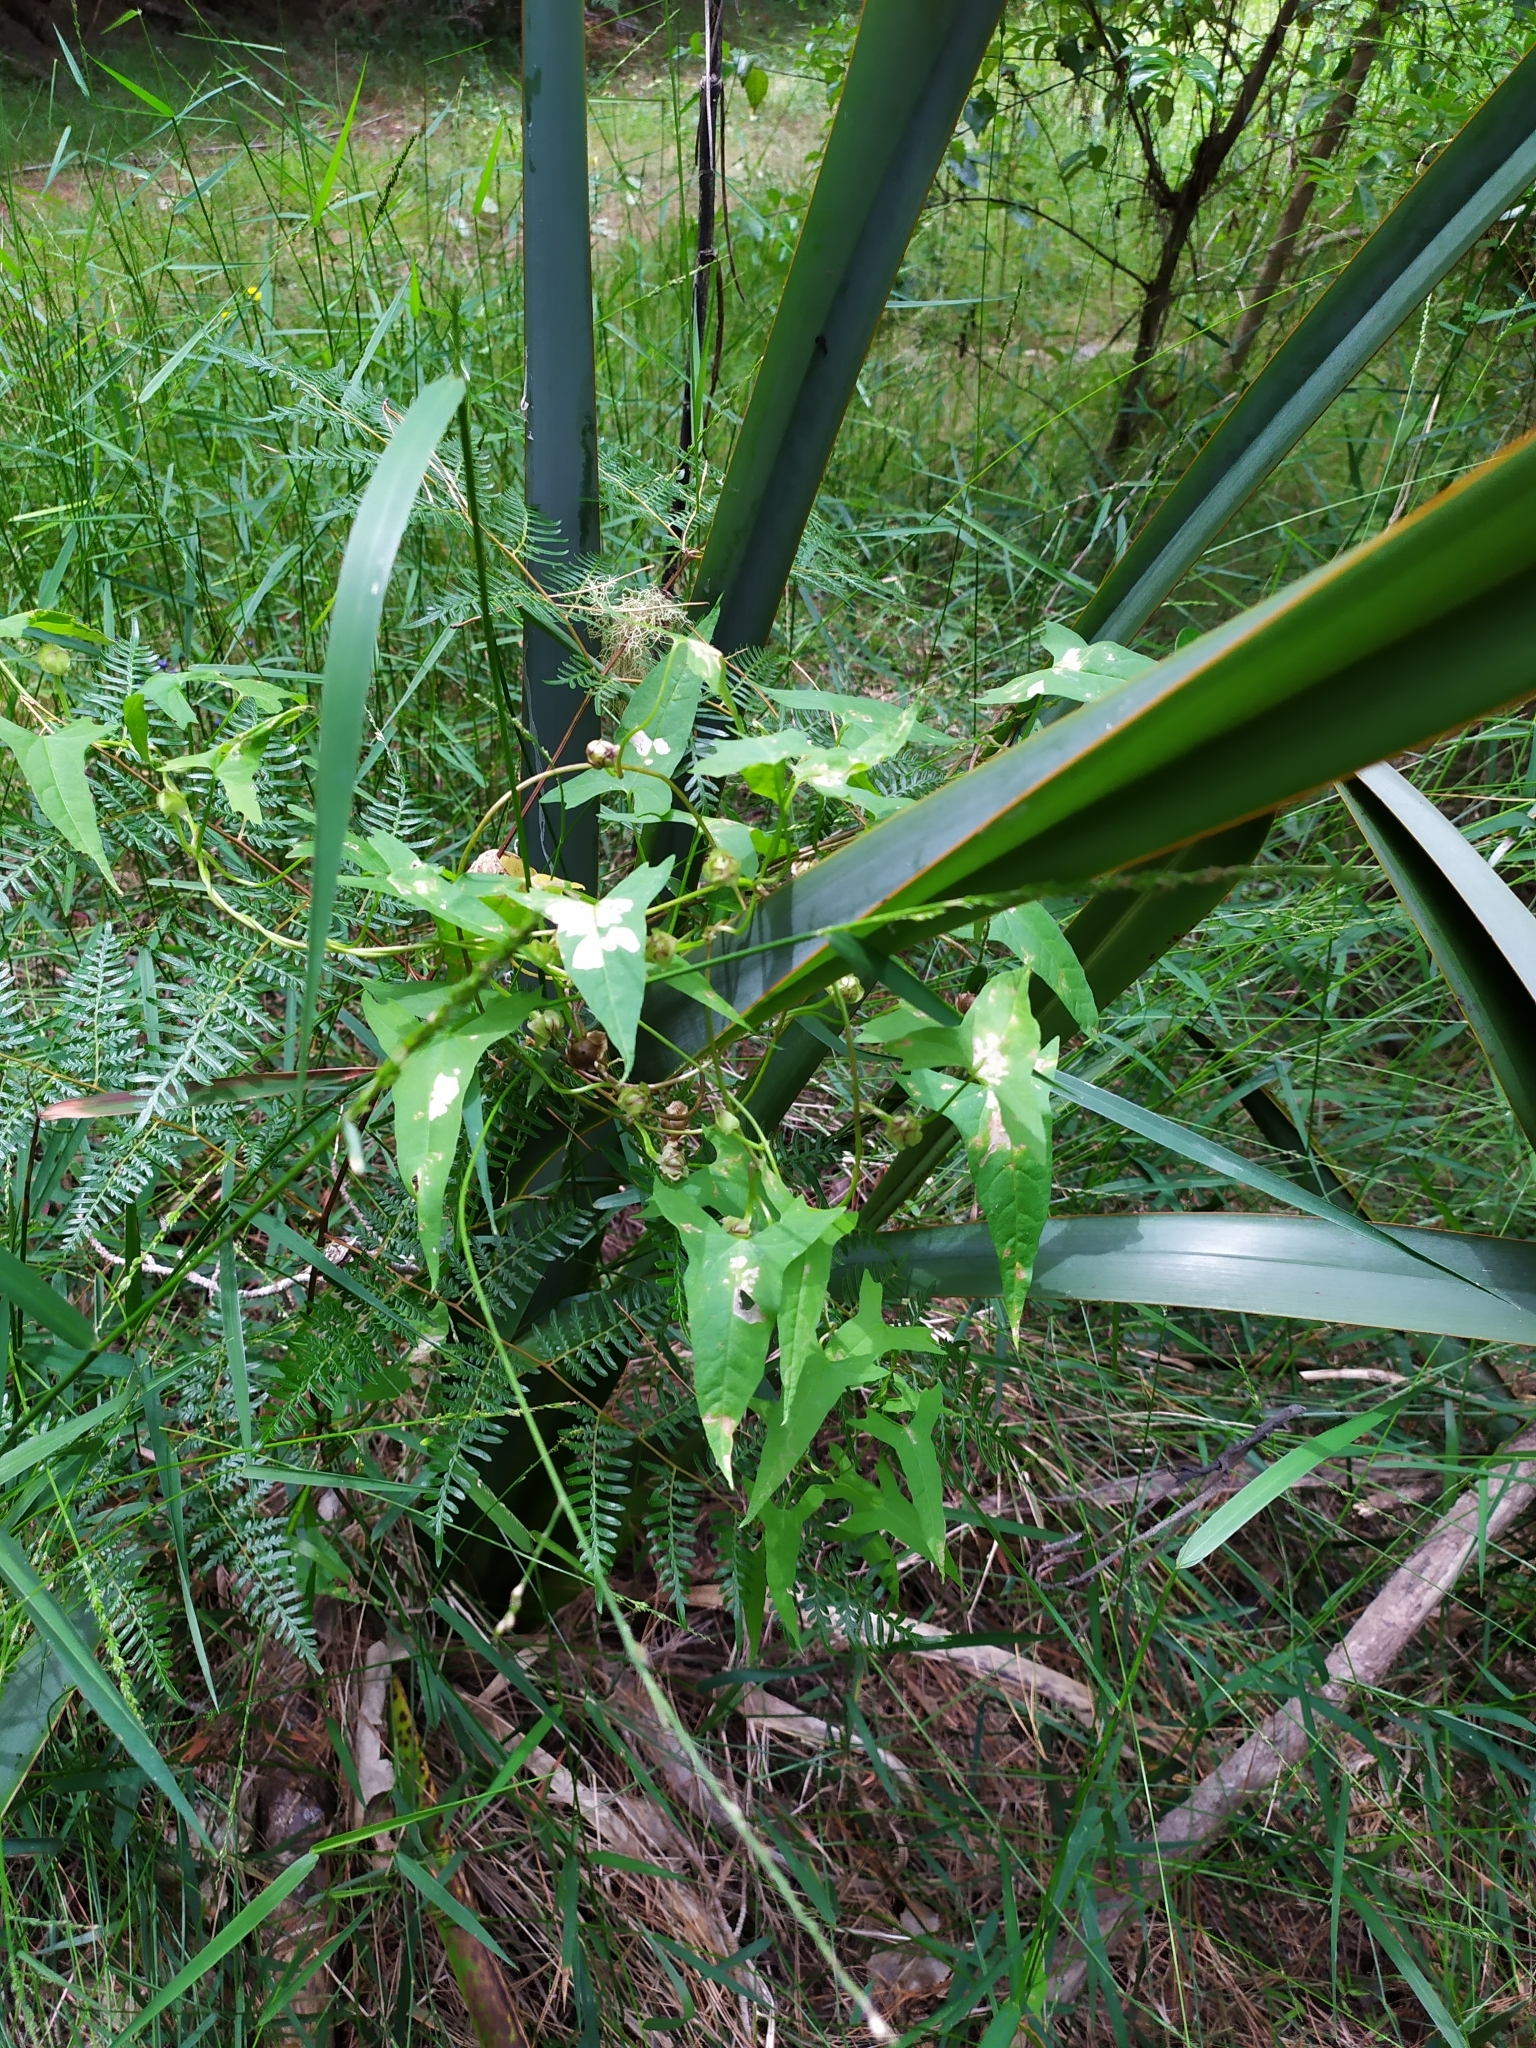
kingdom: Plantae
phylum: Tracheophyta
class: Magnoliopsida
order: Solanales
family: Convolvulaceae
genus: Calystegia
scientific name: Calystegia marginata
